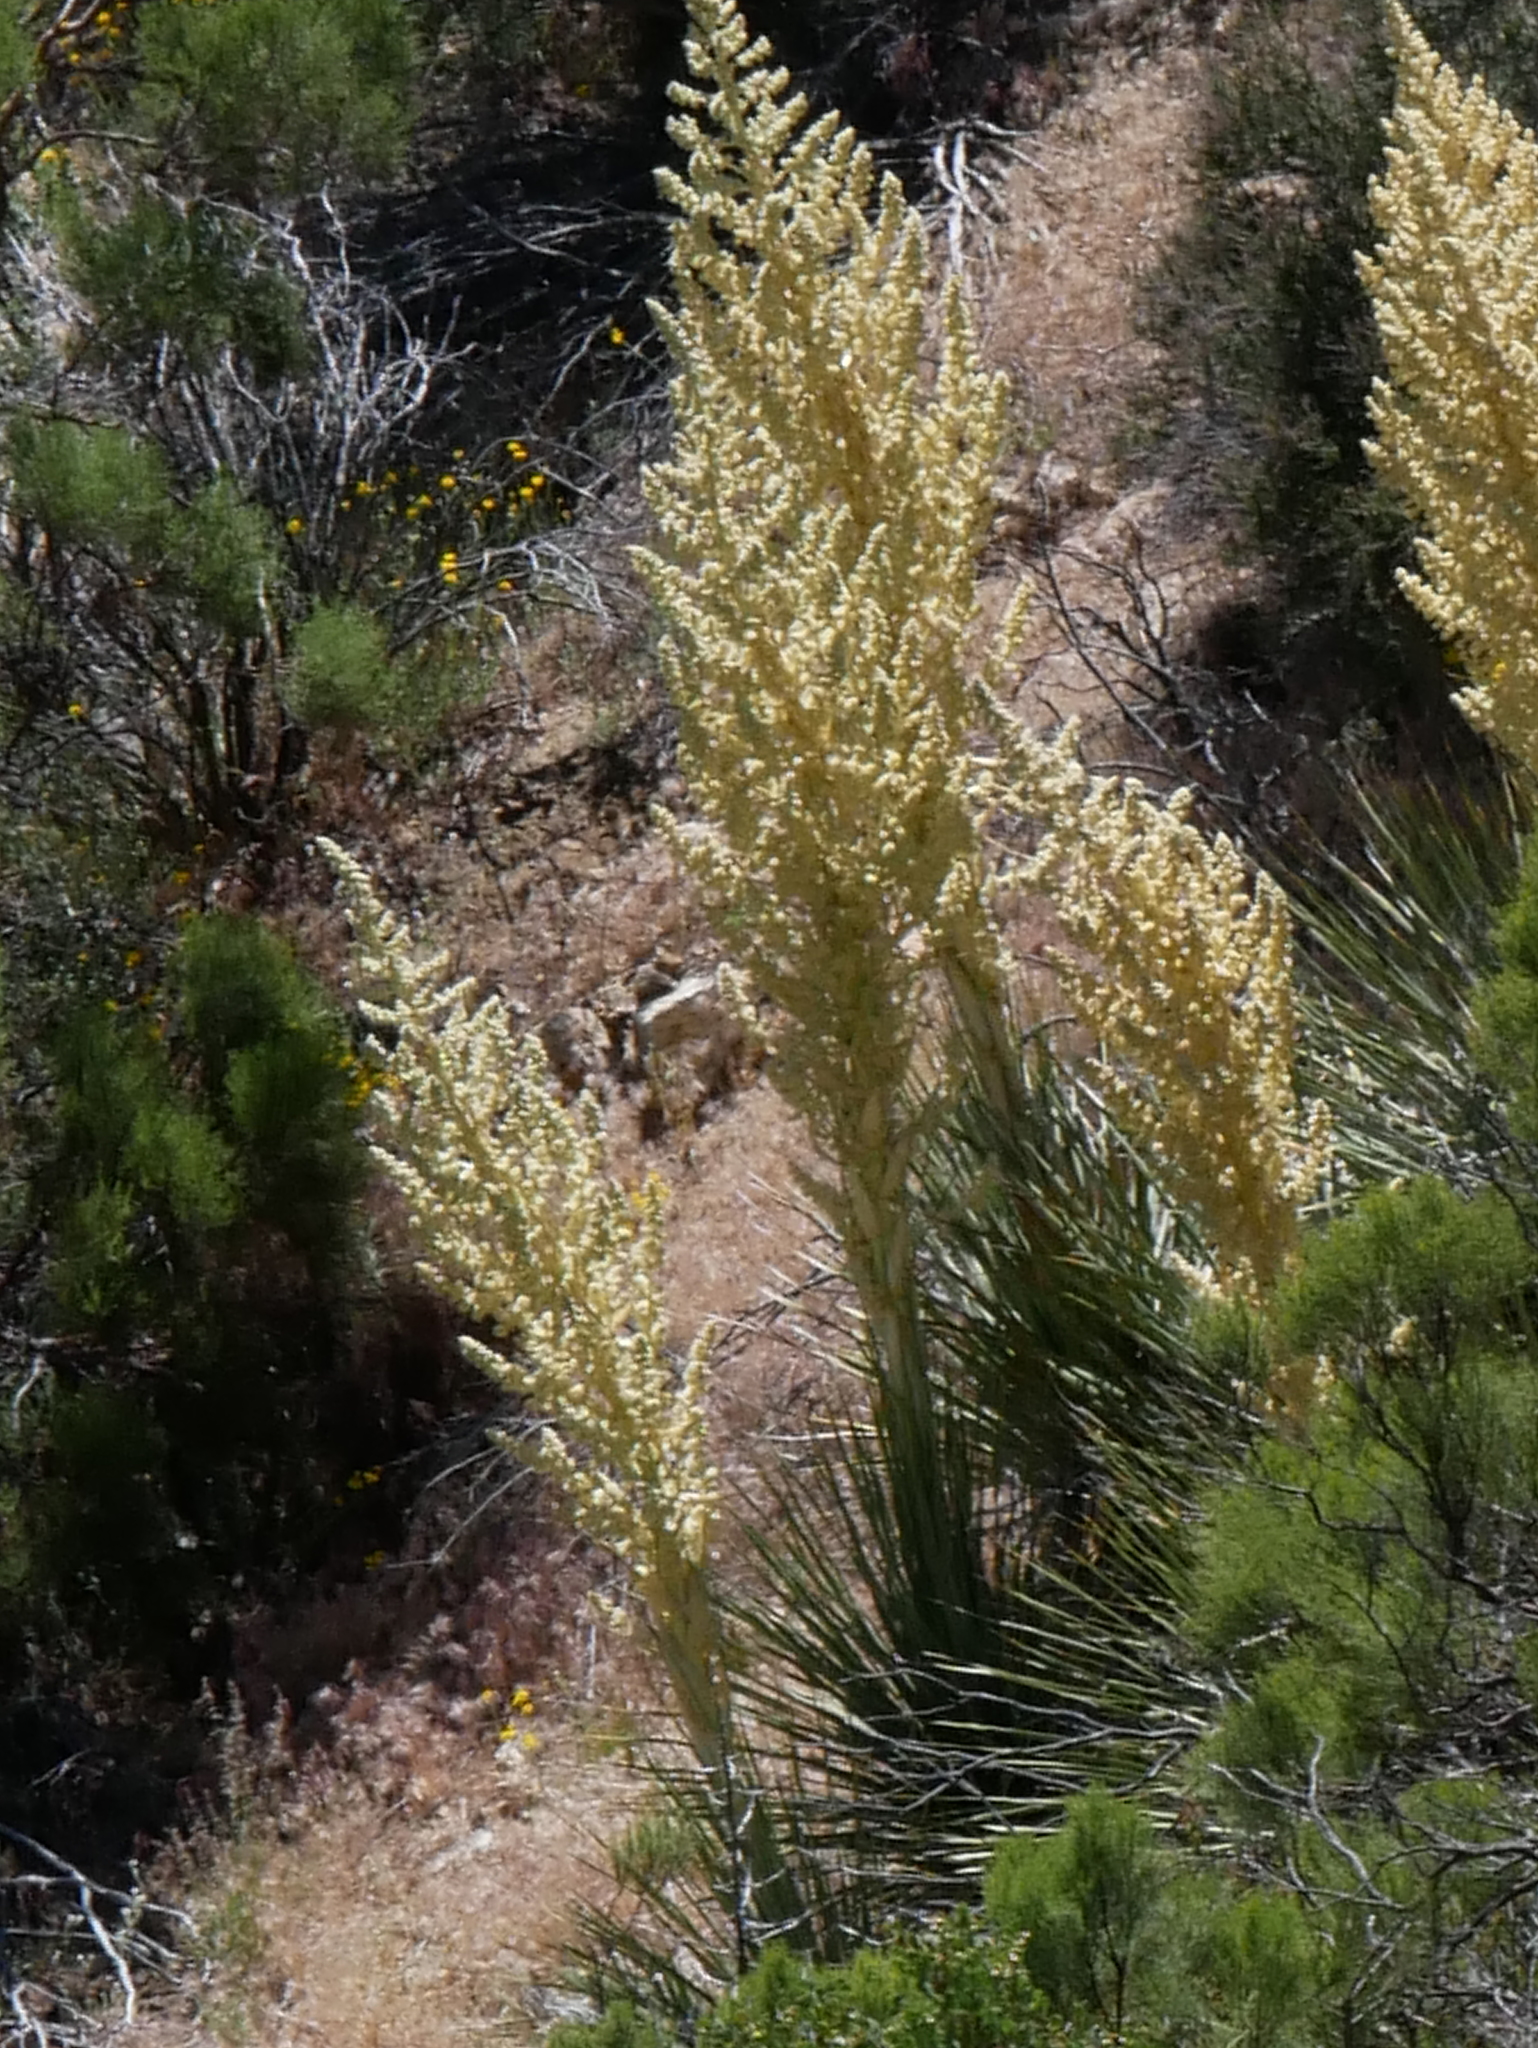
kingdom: Plantae
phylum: Tracheophyta
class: Liliopsida
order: Asparagales
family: Asparagaceae
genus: Nolina
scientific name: Nolina parryi
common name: Parry nolina
